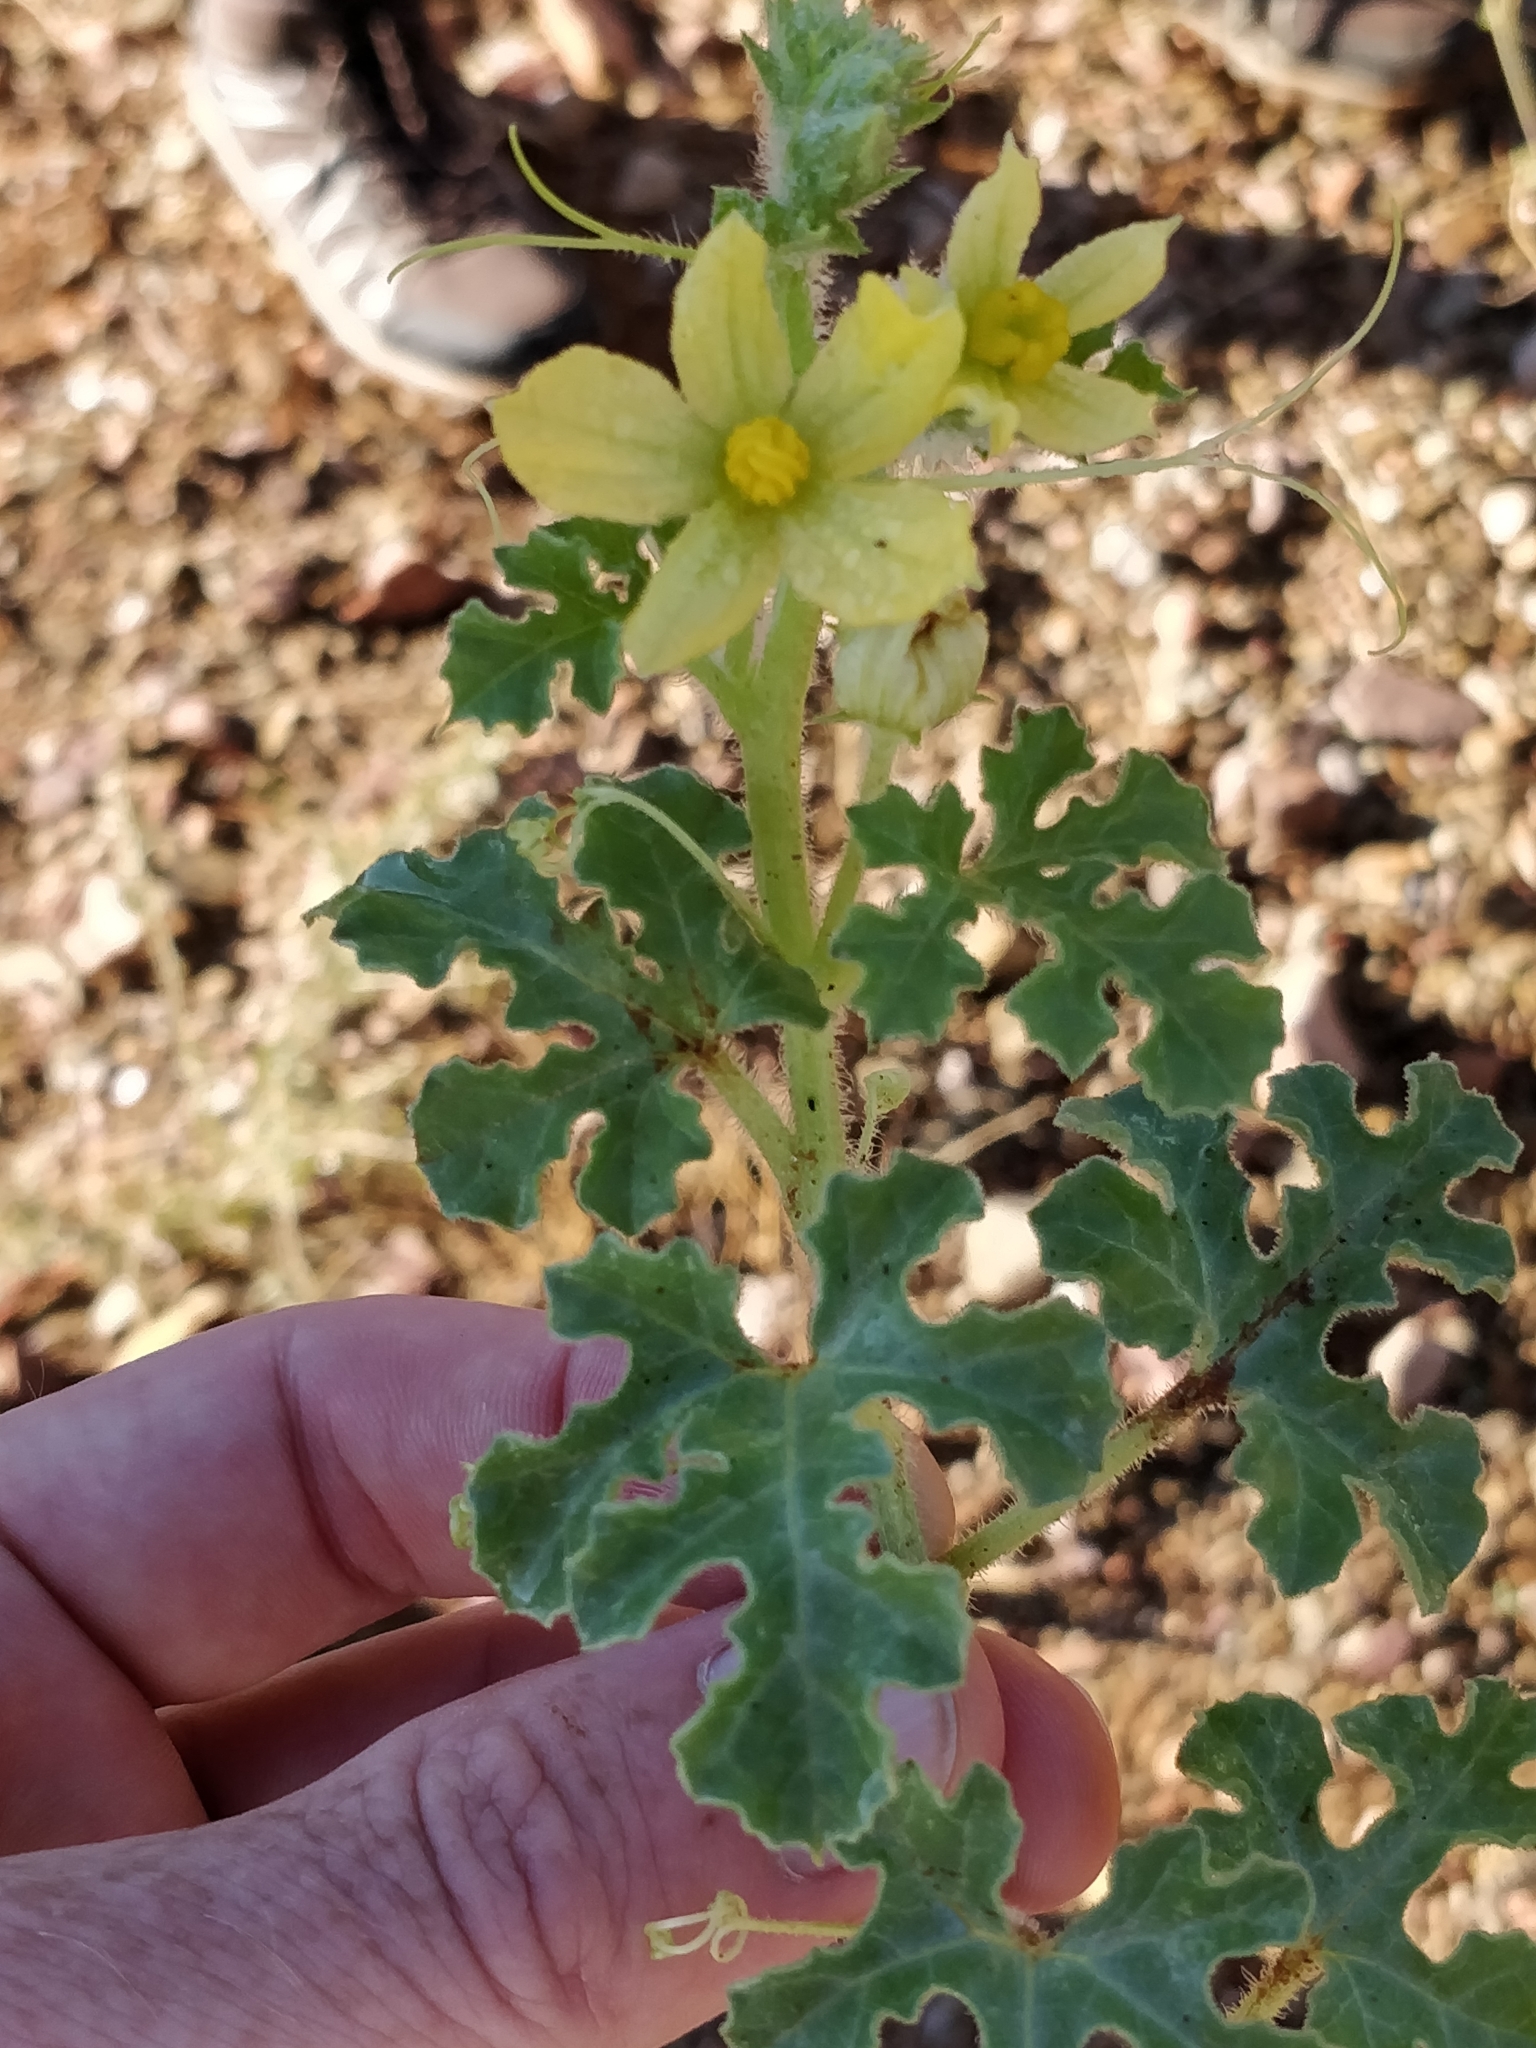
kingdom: Plantae
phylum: Tracheophyta
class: Magnoliopsida
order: Cucurbitales
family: Cucurbitaceae
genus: Citrullus
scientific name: Citrullus amarus
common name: Fodder-melon
